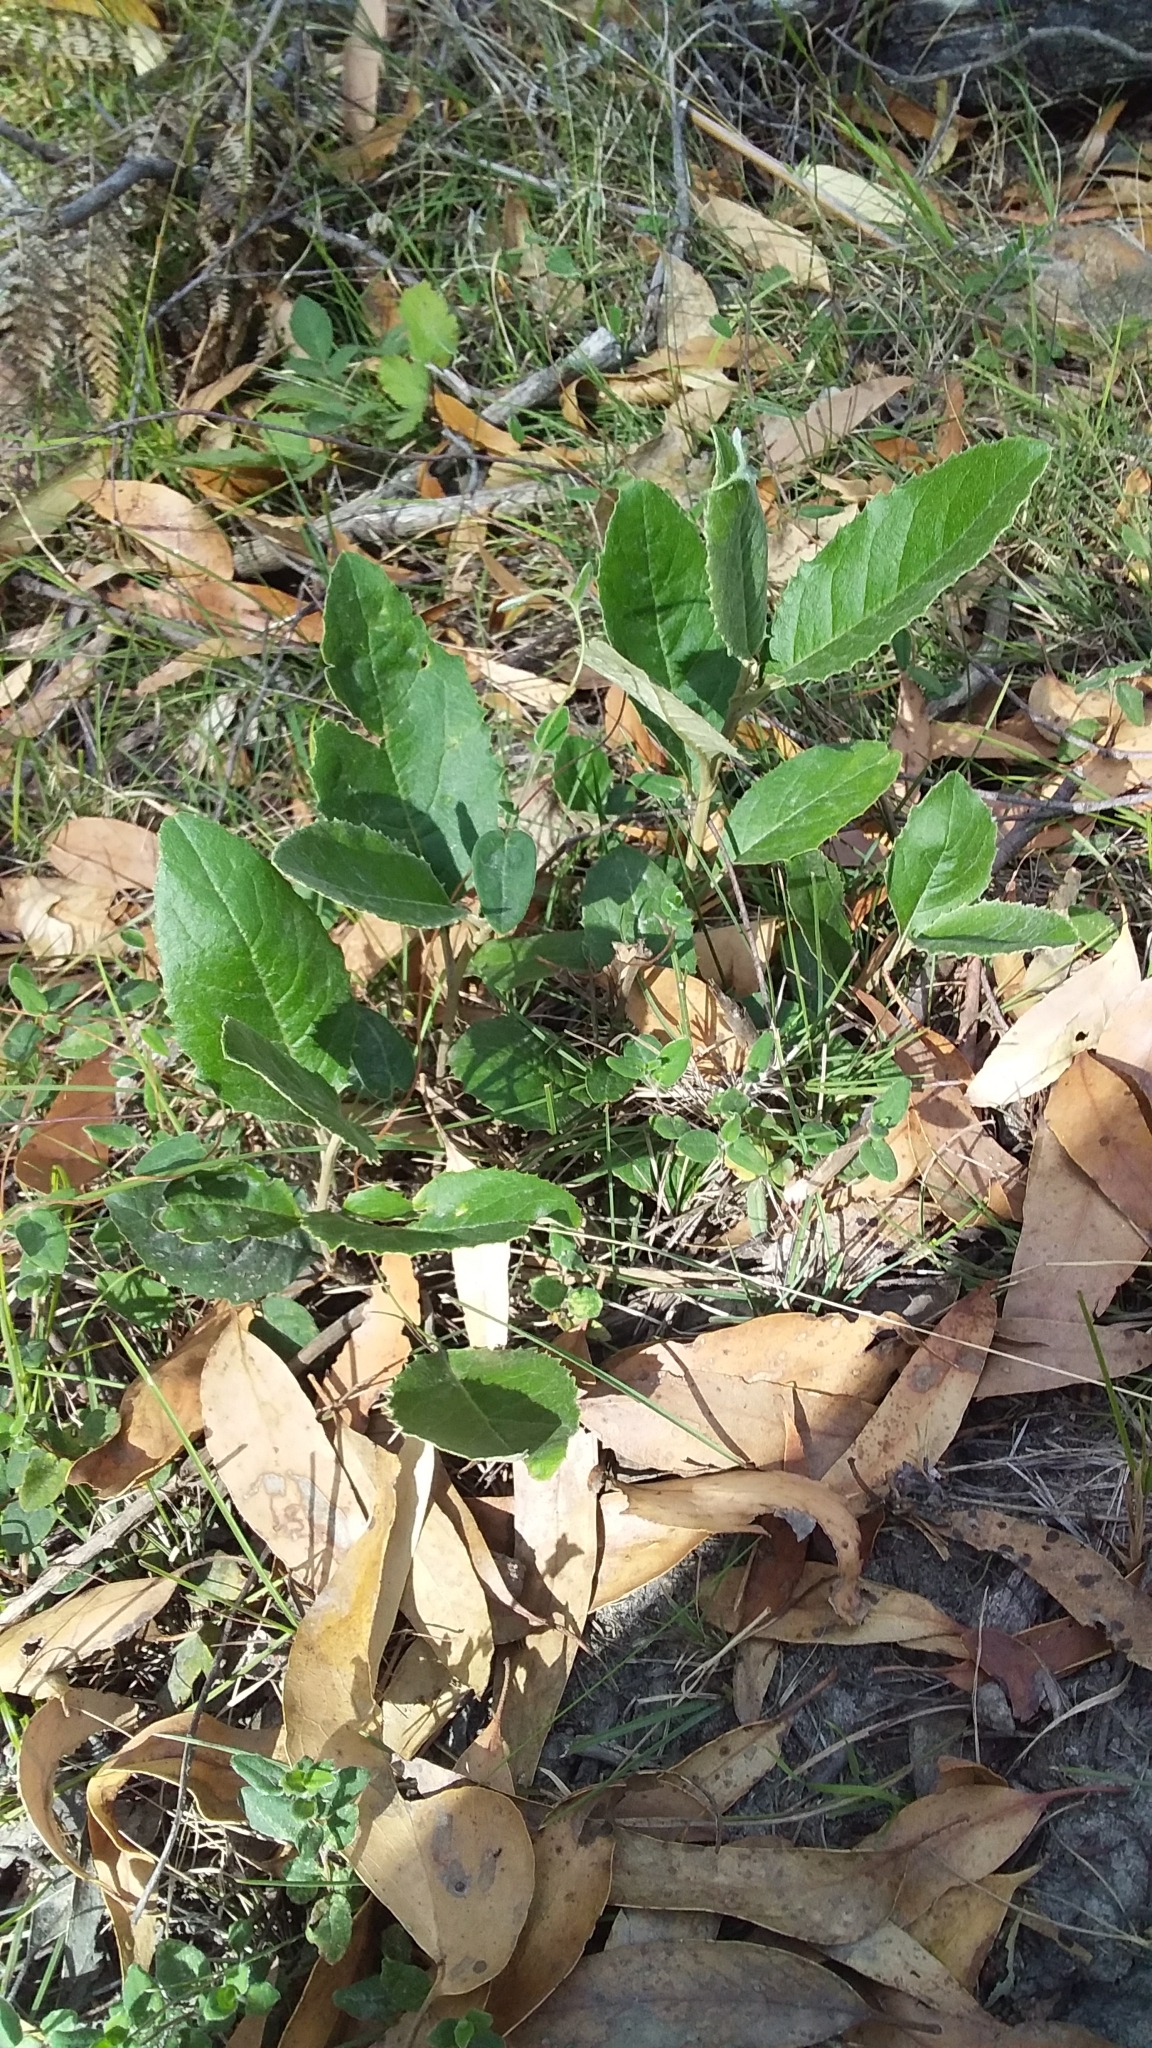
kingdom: Plantae
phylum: Tracheophyta
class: Magnoliopsida
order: Asterales
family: Asteraceae
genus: Olearia
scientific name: Olearia grandiflora
